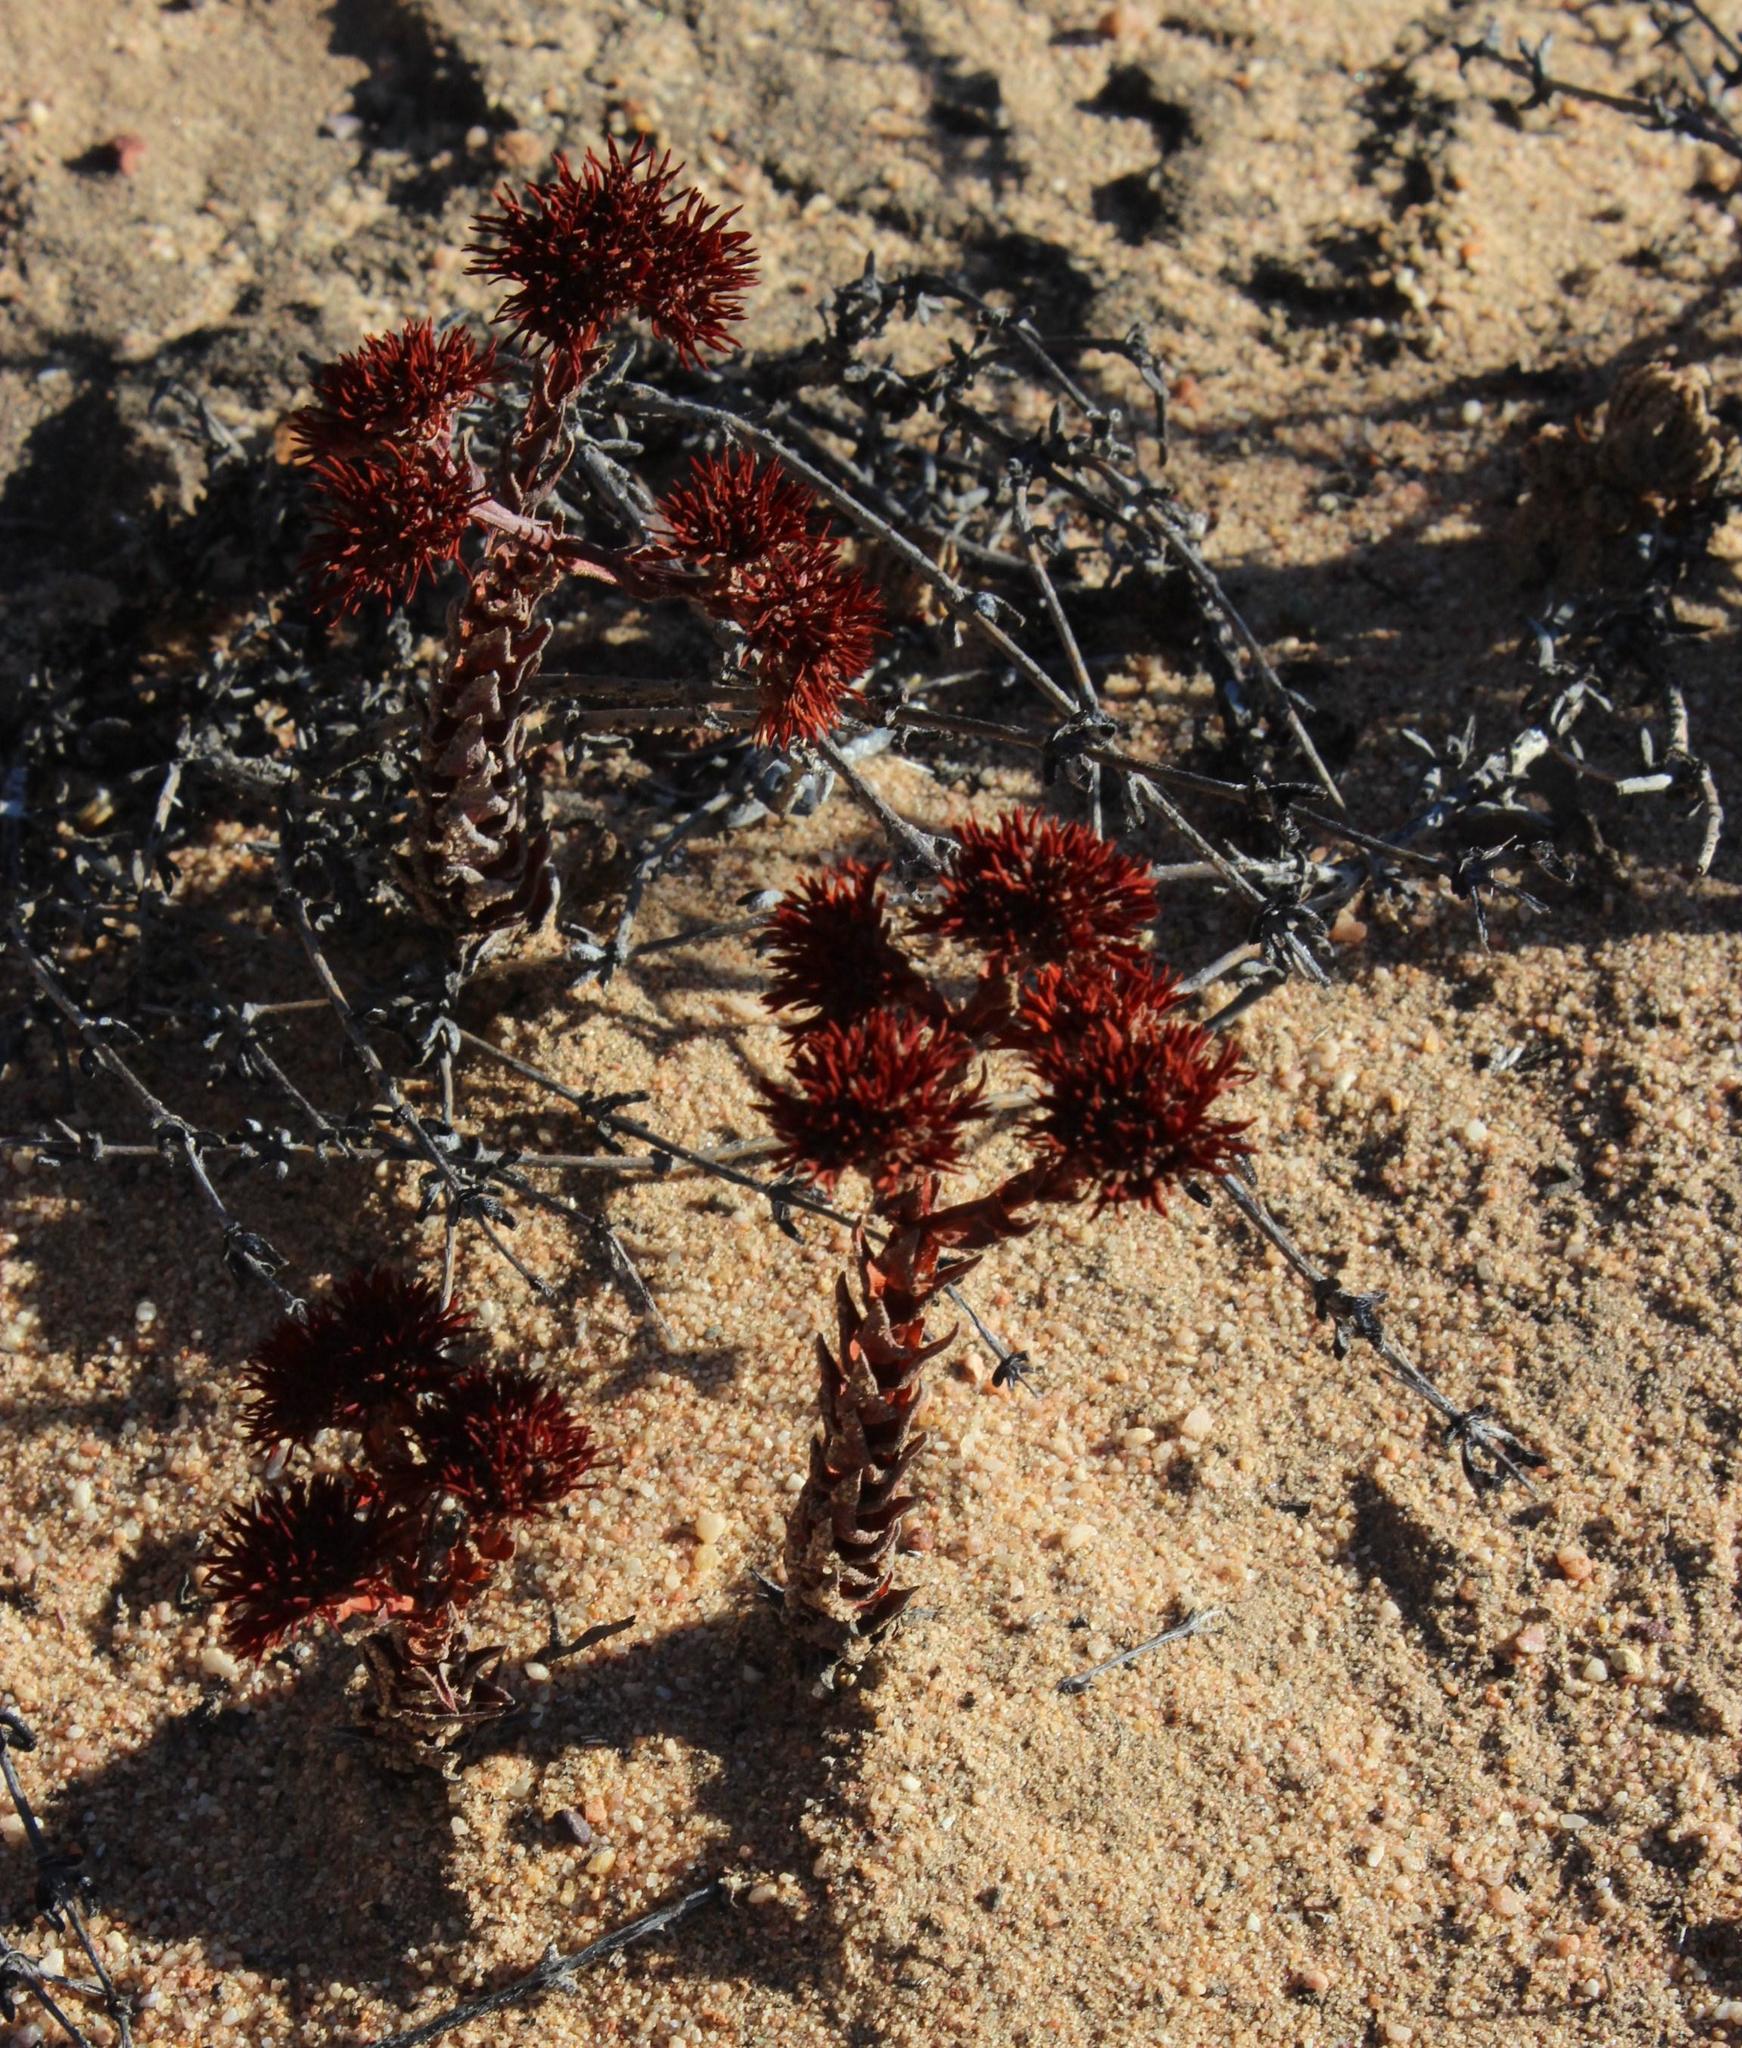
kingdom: Plantae
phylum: Tracheophyta
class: Magnoliopsida
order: Saxifragales
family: Crassulaceae
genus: Crassula
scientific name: Crassula alpestris
